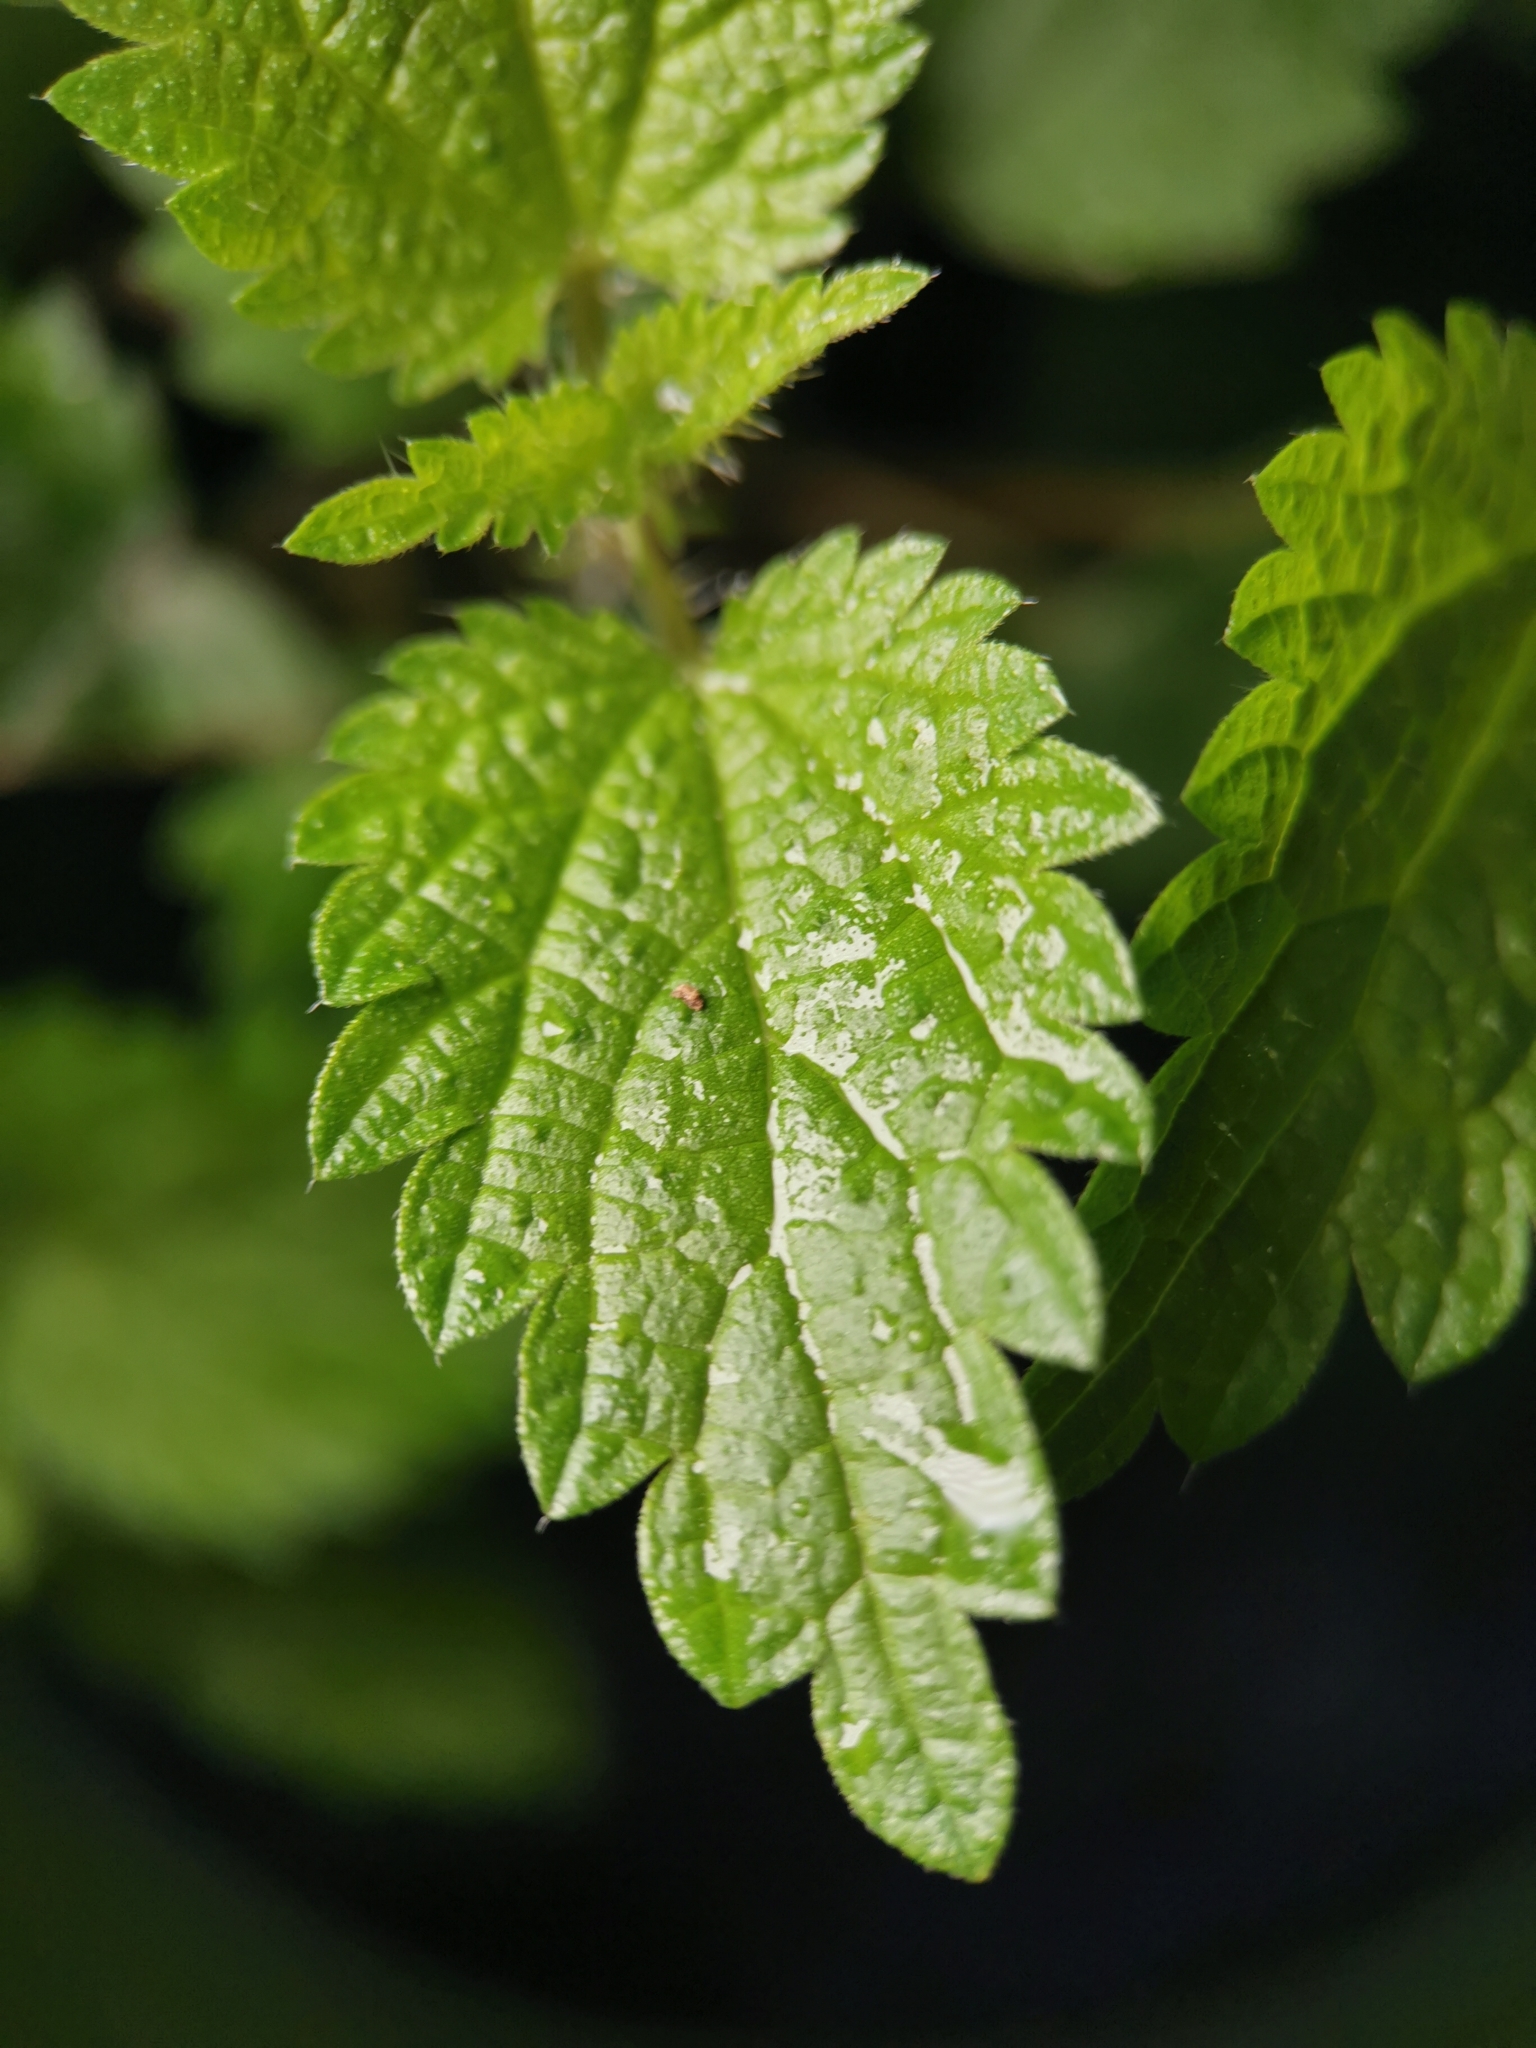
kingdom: Plantae
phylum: Tracheophyta
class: Magnoliopsida
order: Rosales
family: Urticaceae
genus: Urtica
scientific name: Urtica dioica
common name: Common nettle
